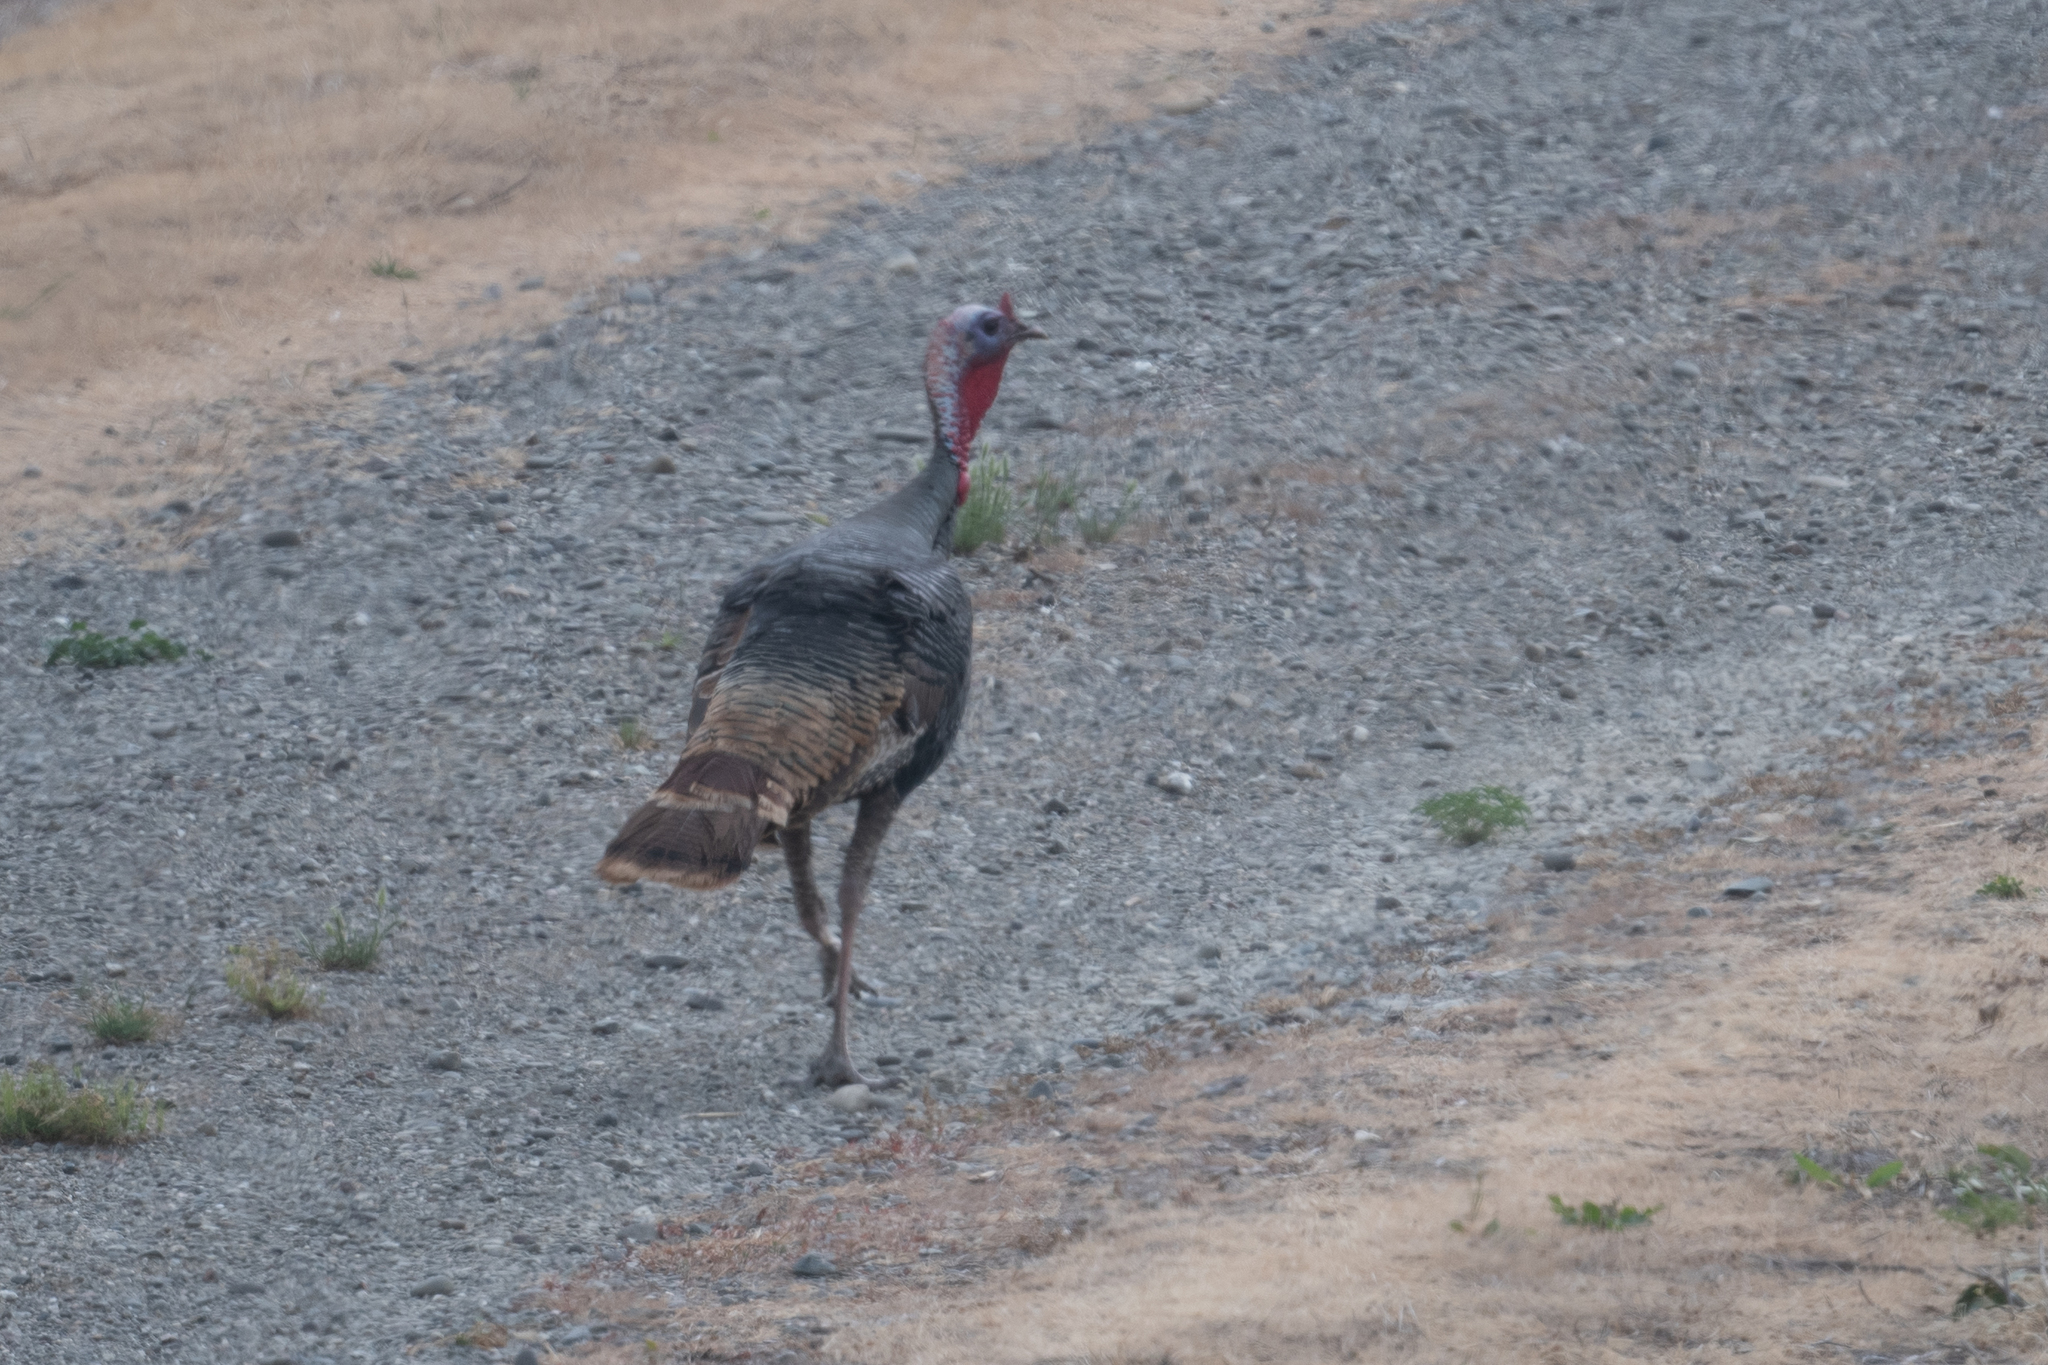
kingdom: Animalia
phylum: Chordata
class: Aves
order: Galliformes
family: Phasianidae
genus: Meleagris
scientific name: Meleagris gallopavo
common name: Wild turkey
